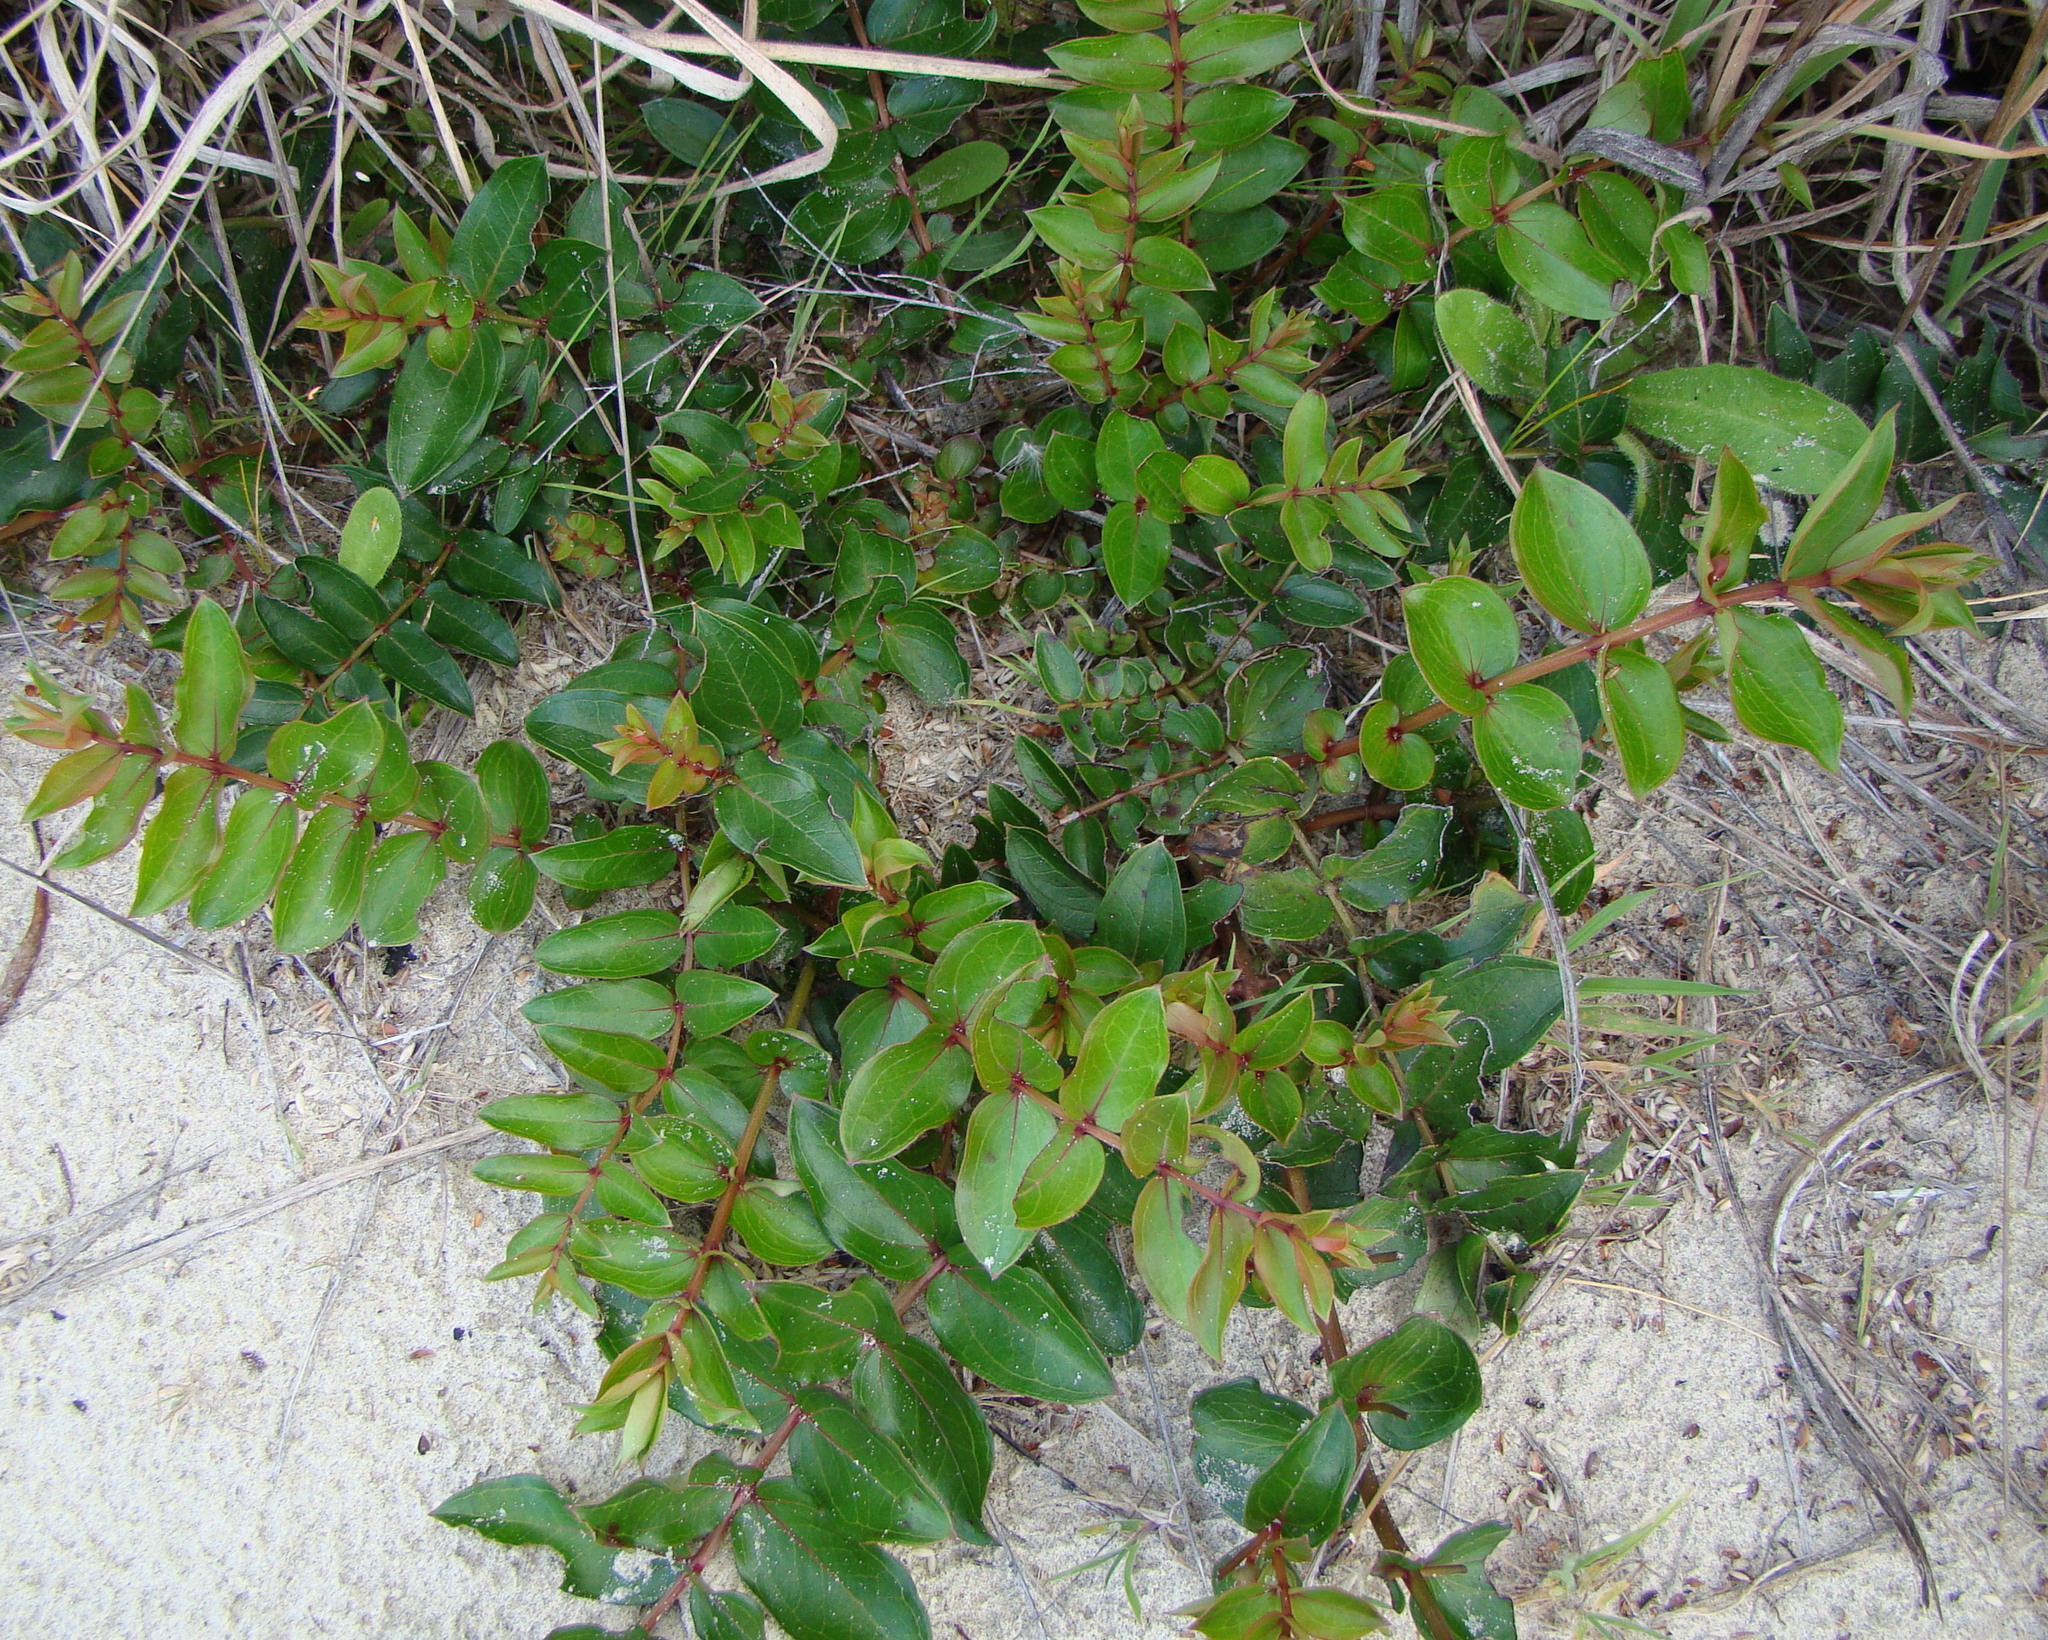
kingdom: Plantae
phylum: Tracheophyta
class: Magnoliopsida
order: Cucurbitales
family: Coriariaceae
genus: Coriaria
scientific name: Coriaria arborea
